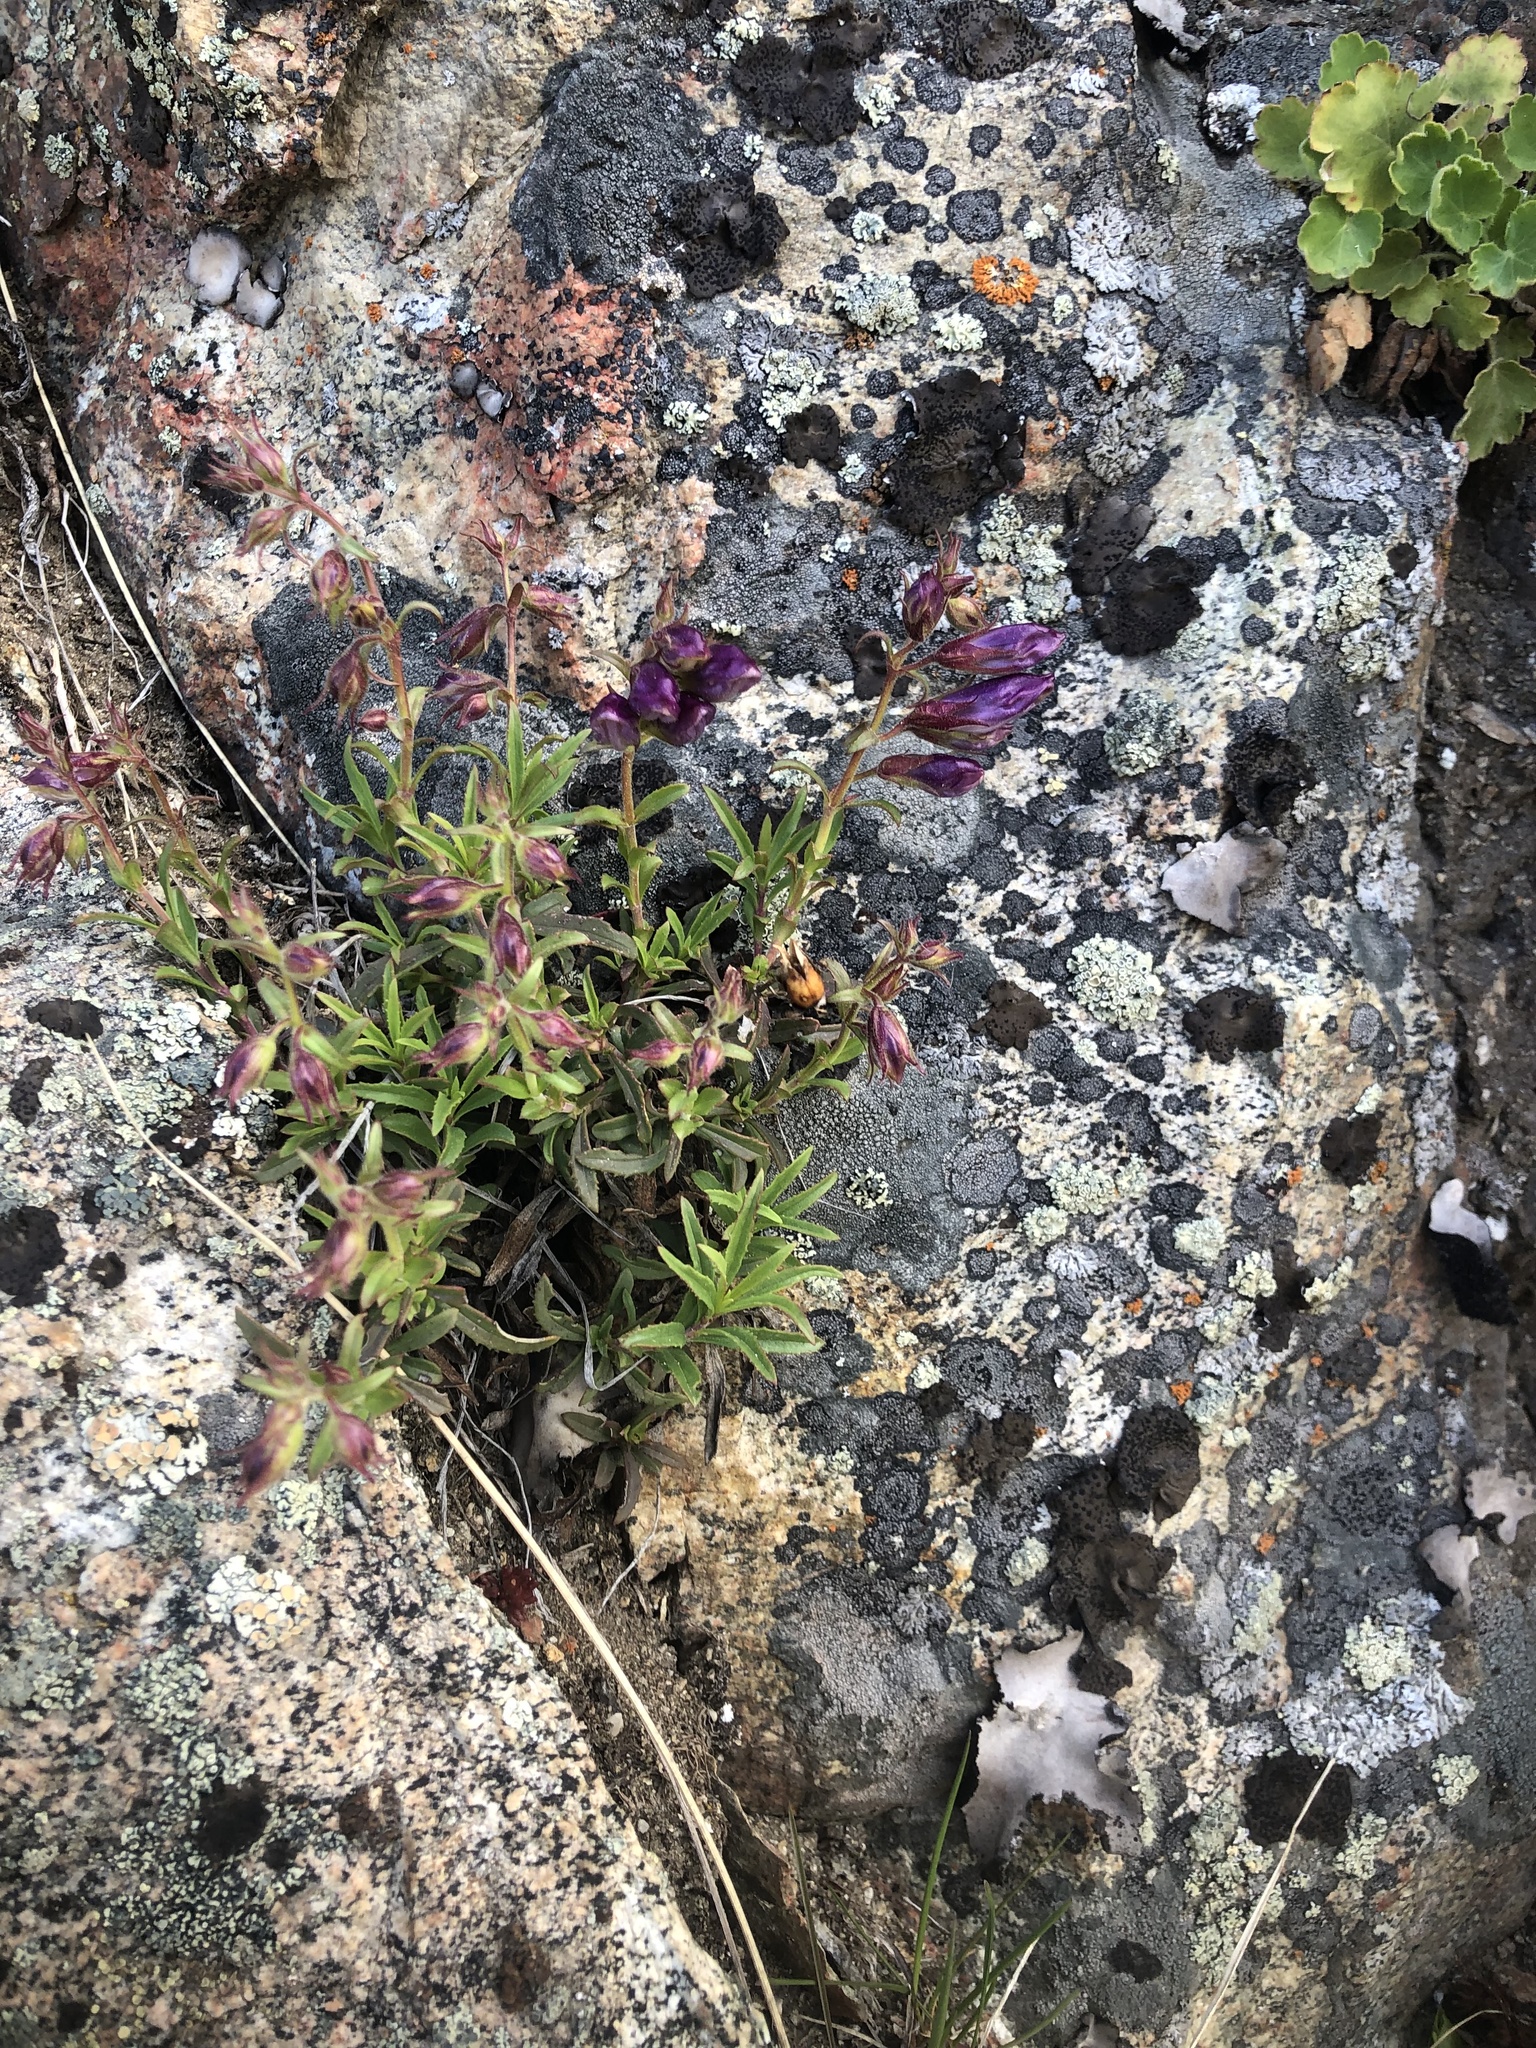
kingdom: Plantae
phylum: Tracheophyta
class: Magnoliopsida
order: Lamiales
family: Plantaginaceae
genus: Penstemon
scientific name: Penstemon fruticosus
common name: Bush penstemon
